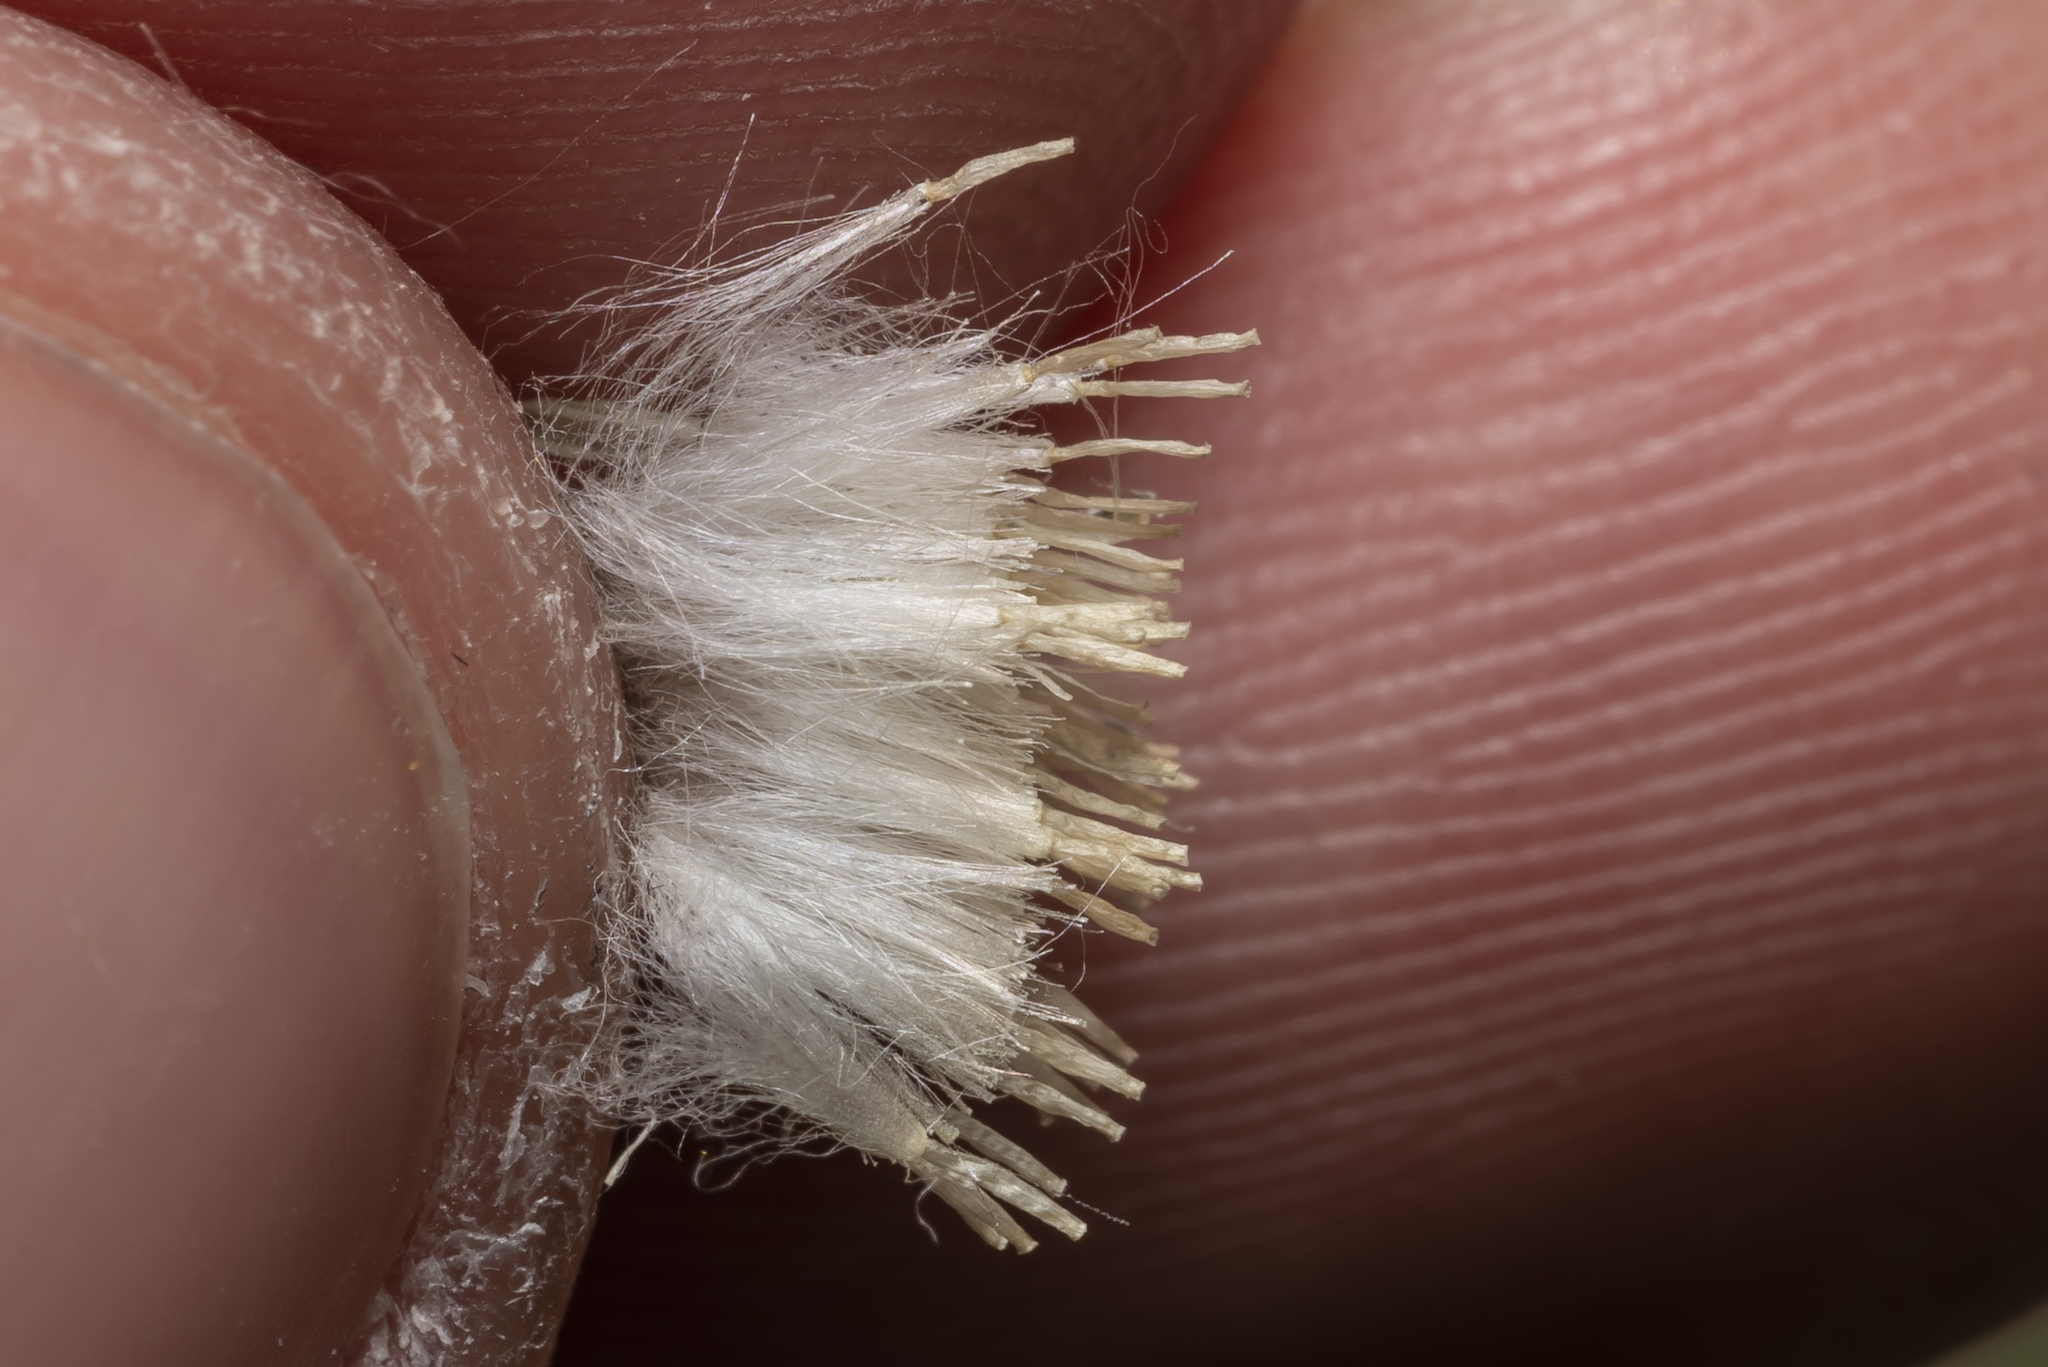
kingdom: Plantae
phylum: Tracheophyta
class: Magnoliopsida
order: Asterales
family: Asteraceae
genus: Crepis
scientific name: Crepis sancta
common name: Hawk's-beard
